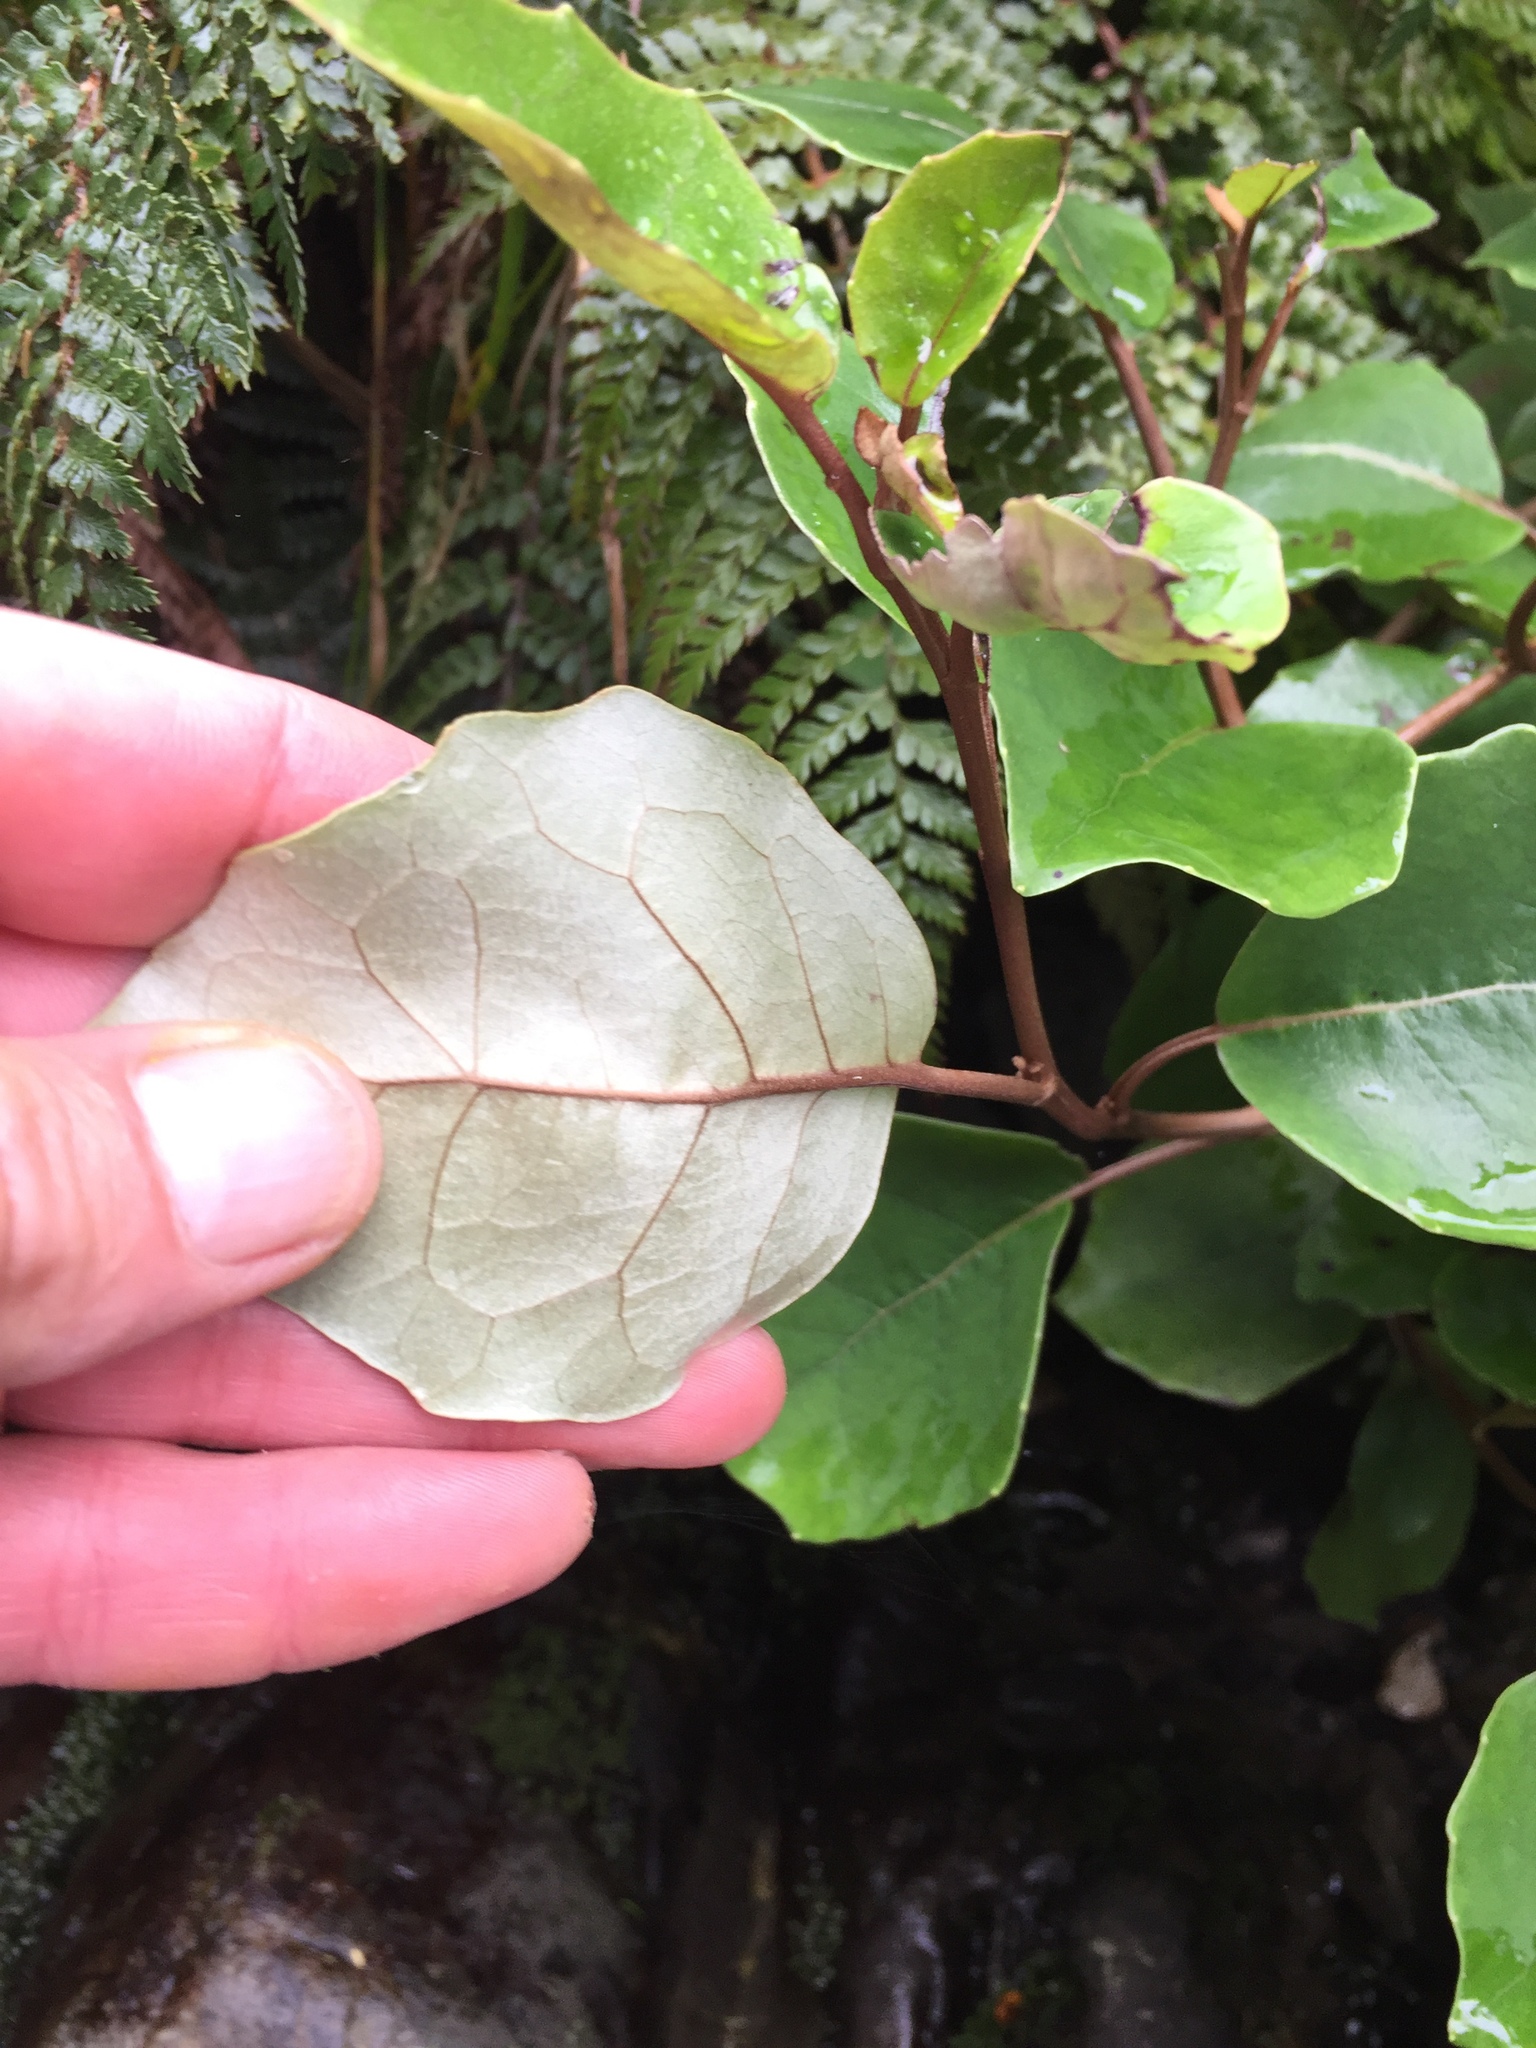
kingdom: Plantae
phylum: Tracheophyta
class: Magnoliopsida
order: Asterales
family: Asteraceae
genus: Olearia
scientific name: Olearia arborescens
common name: Glossy tree daisy
